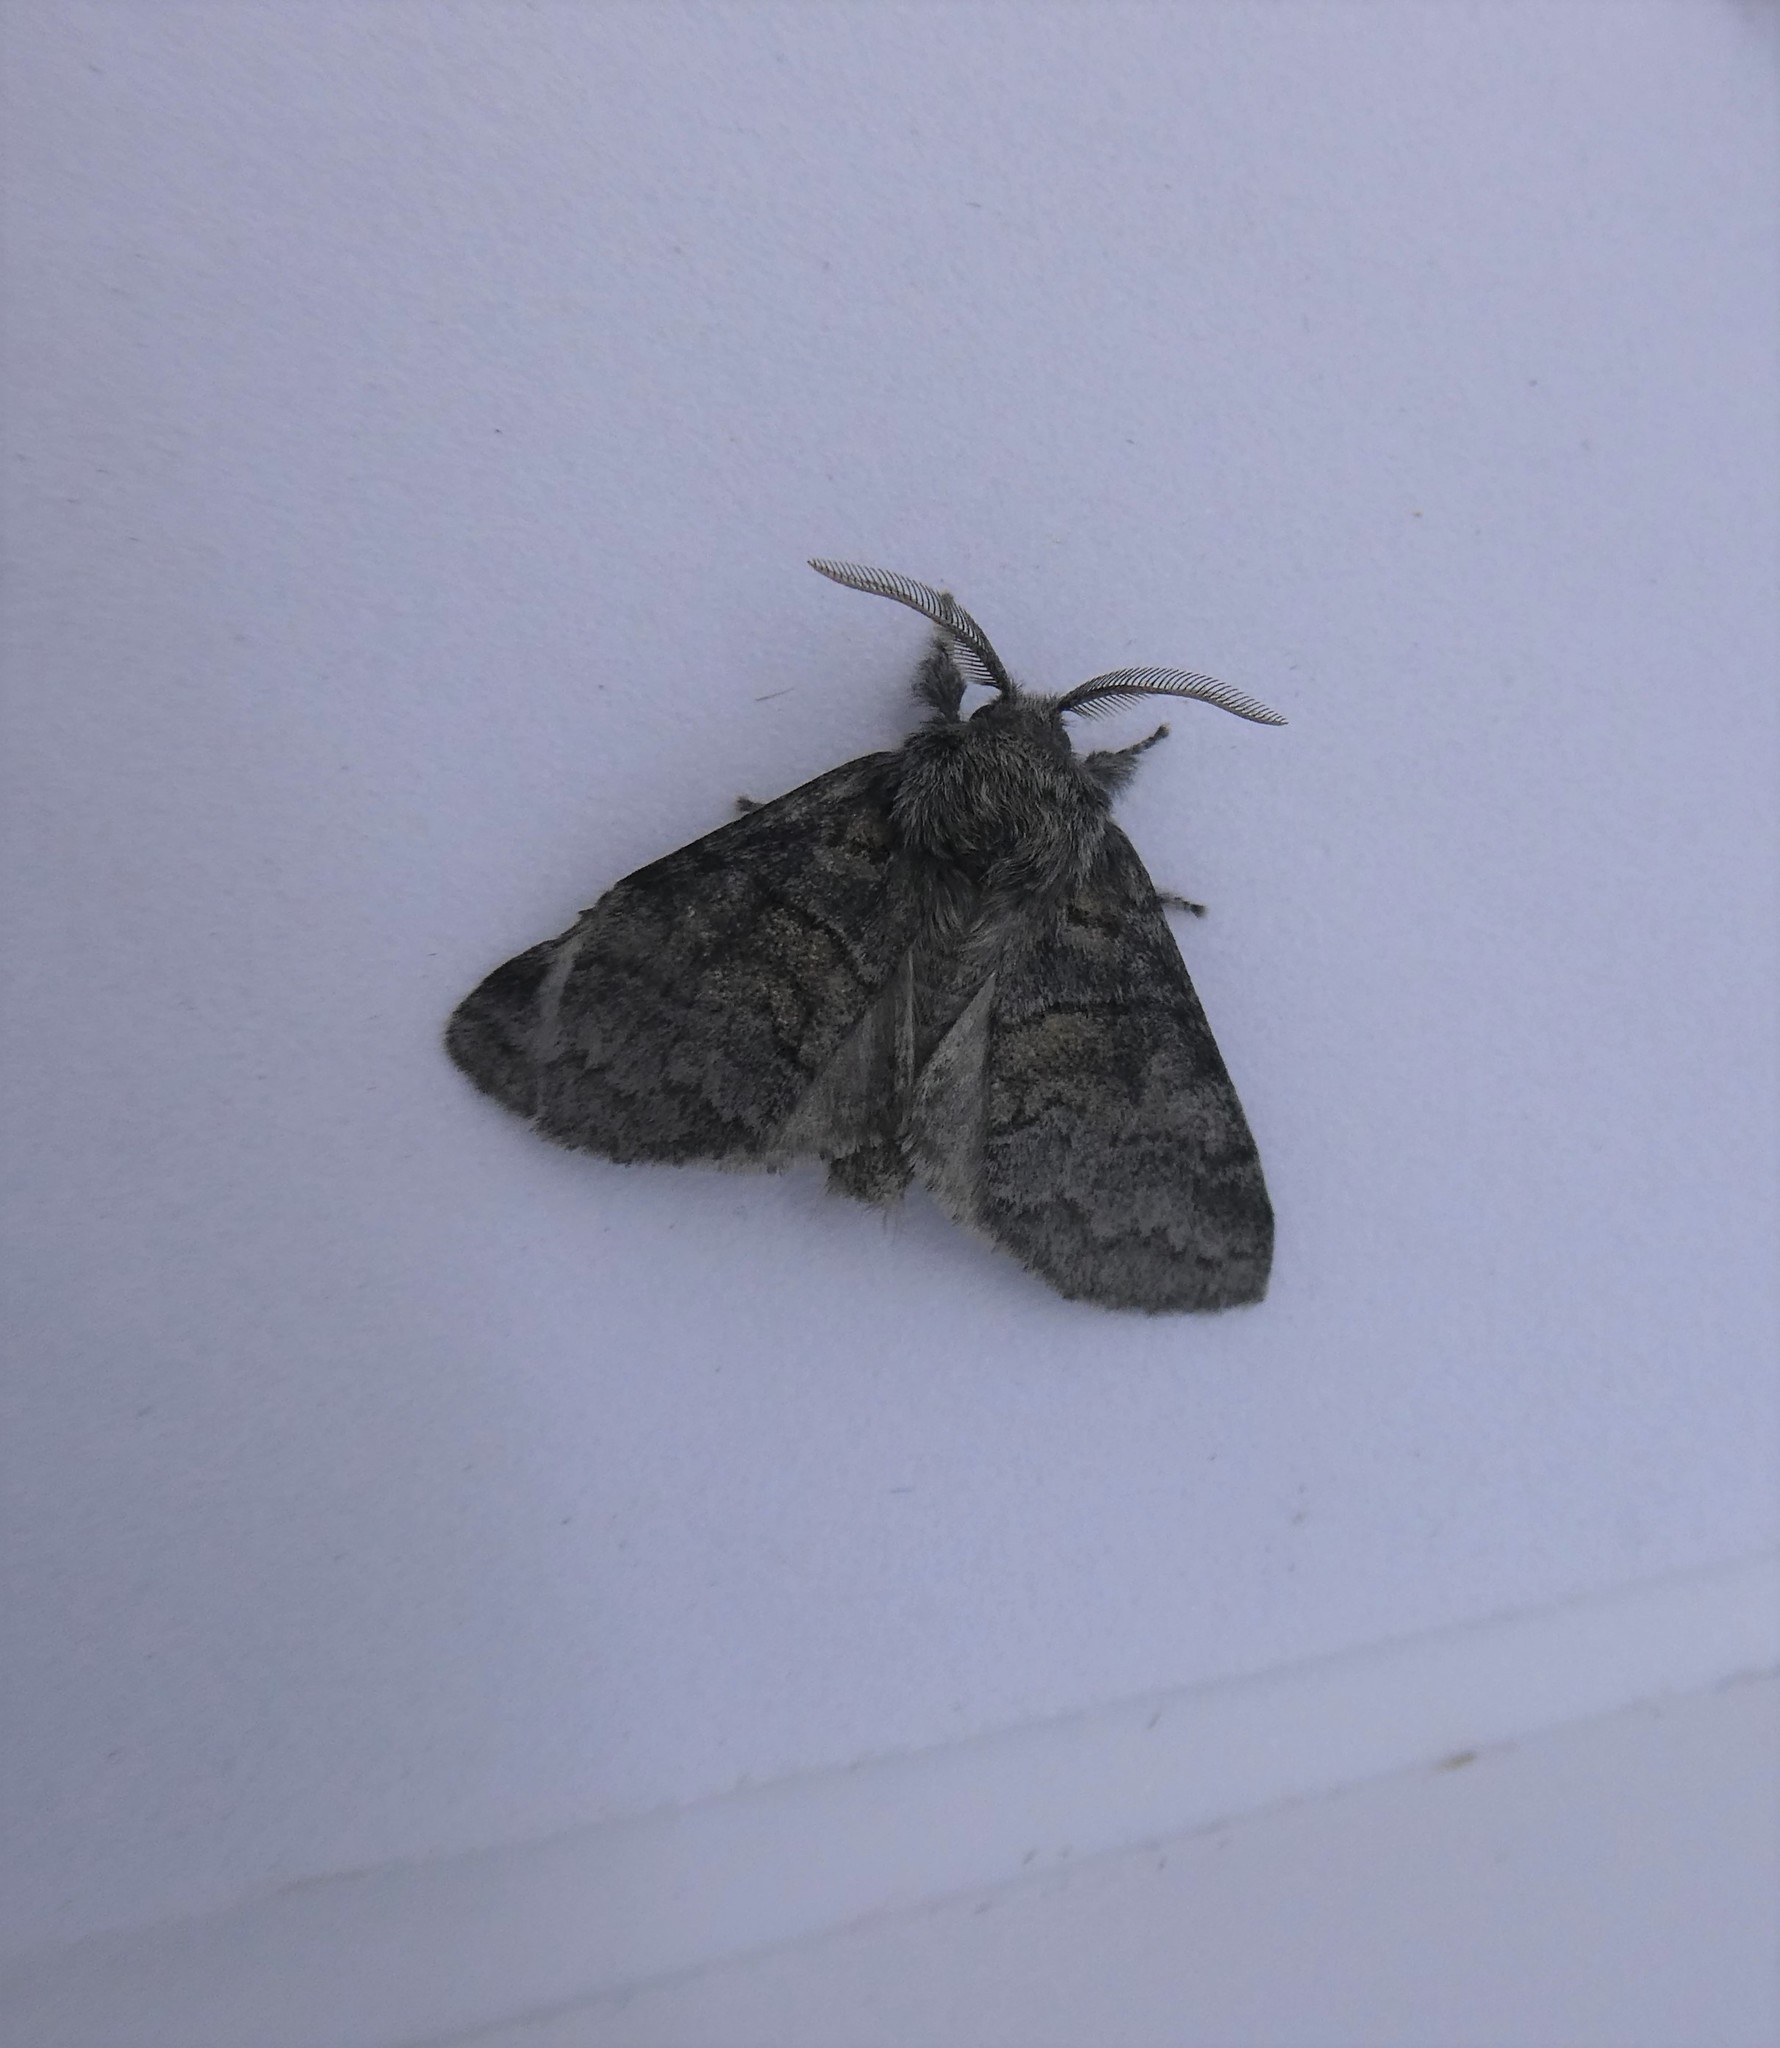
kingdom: Animalia
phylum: Arthropoda
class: Insecta
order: Lepidoptera
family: Notodontidae
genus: Gluphisia
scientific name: Gluphisia septentrionis
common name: Common gluphisia
